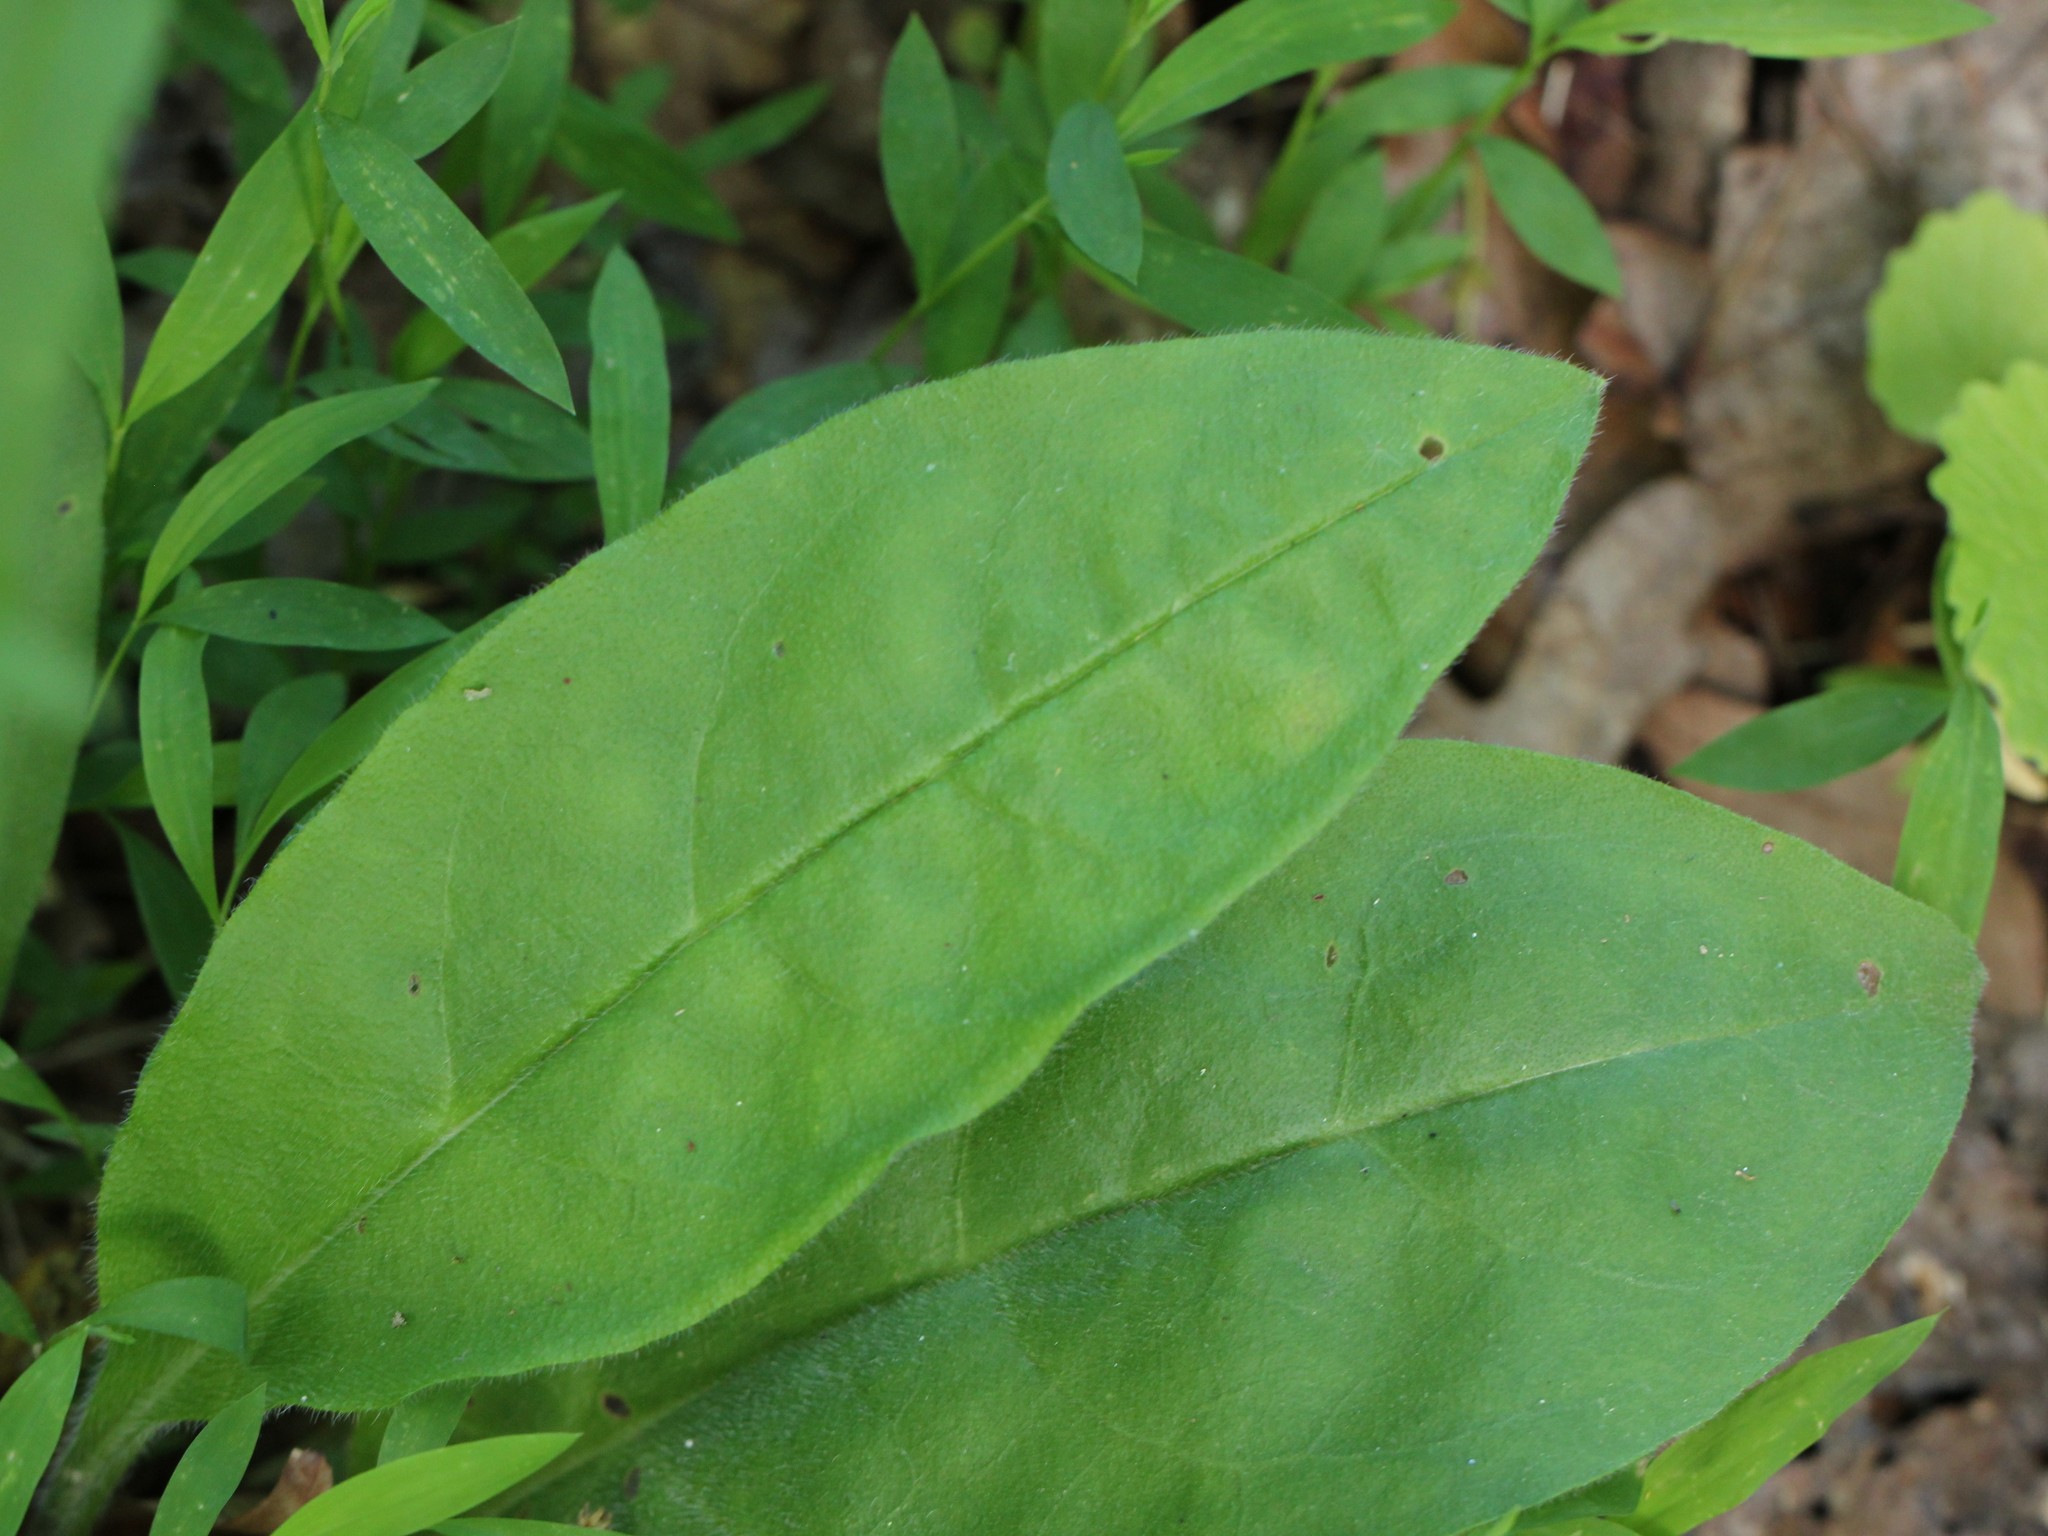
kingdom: Plantae
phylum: Tracheophyta
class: Magnoliopsida
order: Boraginales
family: Boraginaceae
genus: Andersonglossum
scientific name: Andersonglossum virginianum
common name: Wild comfrey
